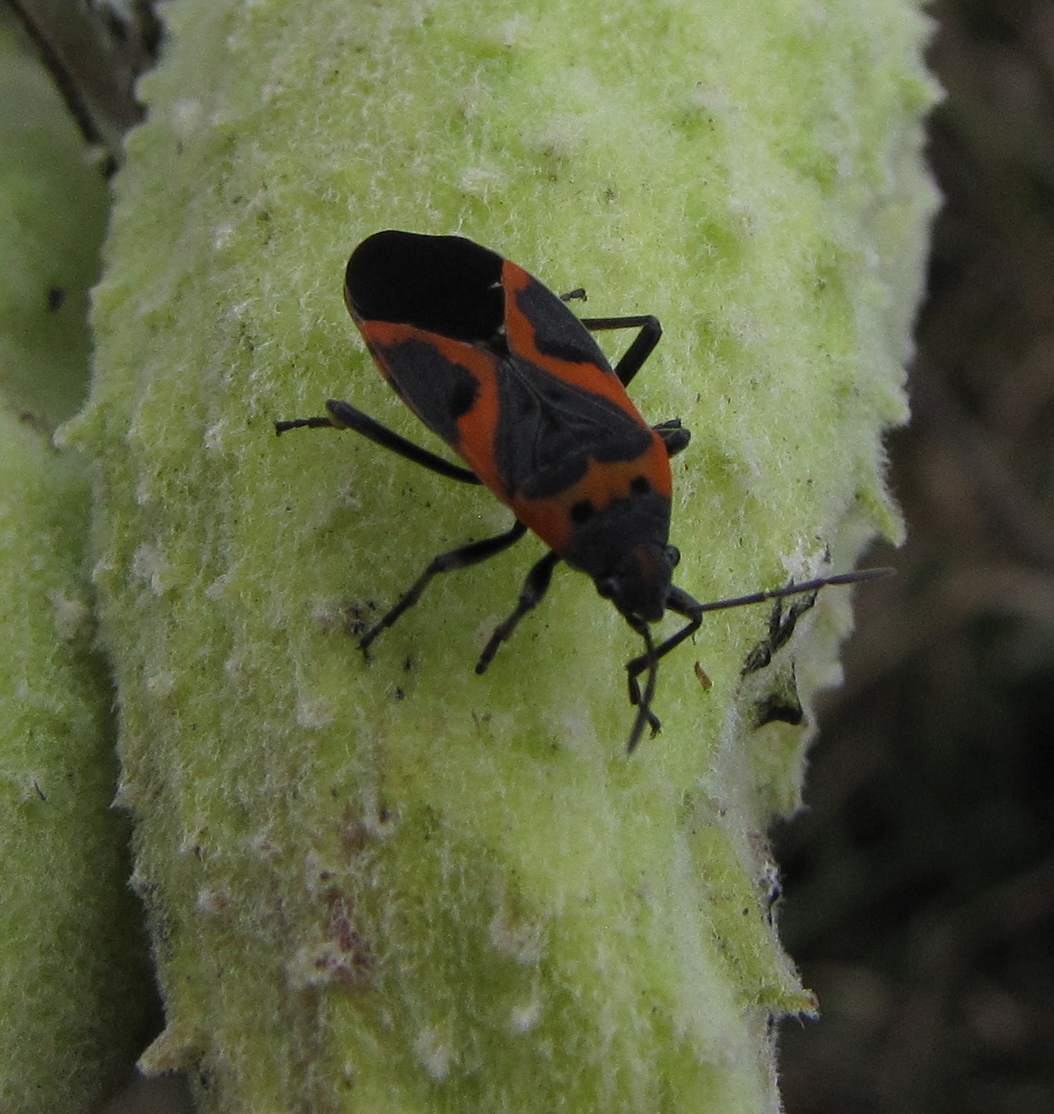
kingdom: Animalia
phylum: Arthropoda
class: Insecta
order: Hemiptera
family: Lygaeidae
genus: Lygaeus
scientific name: Lygaeus kalmii
